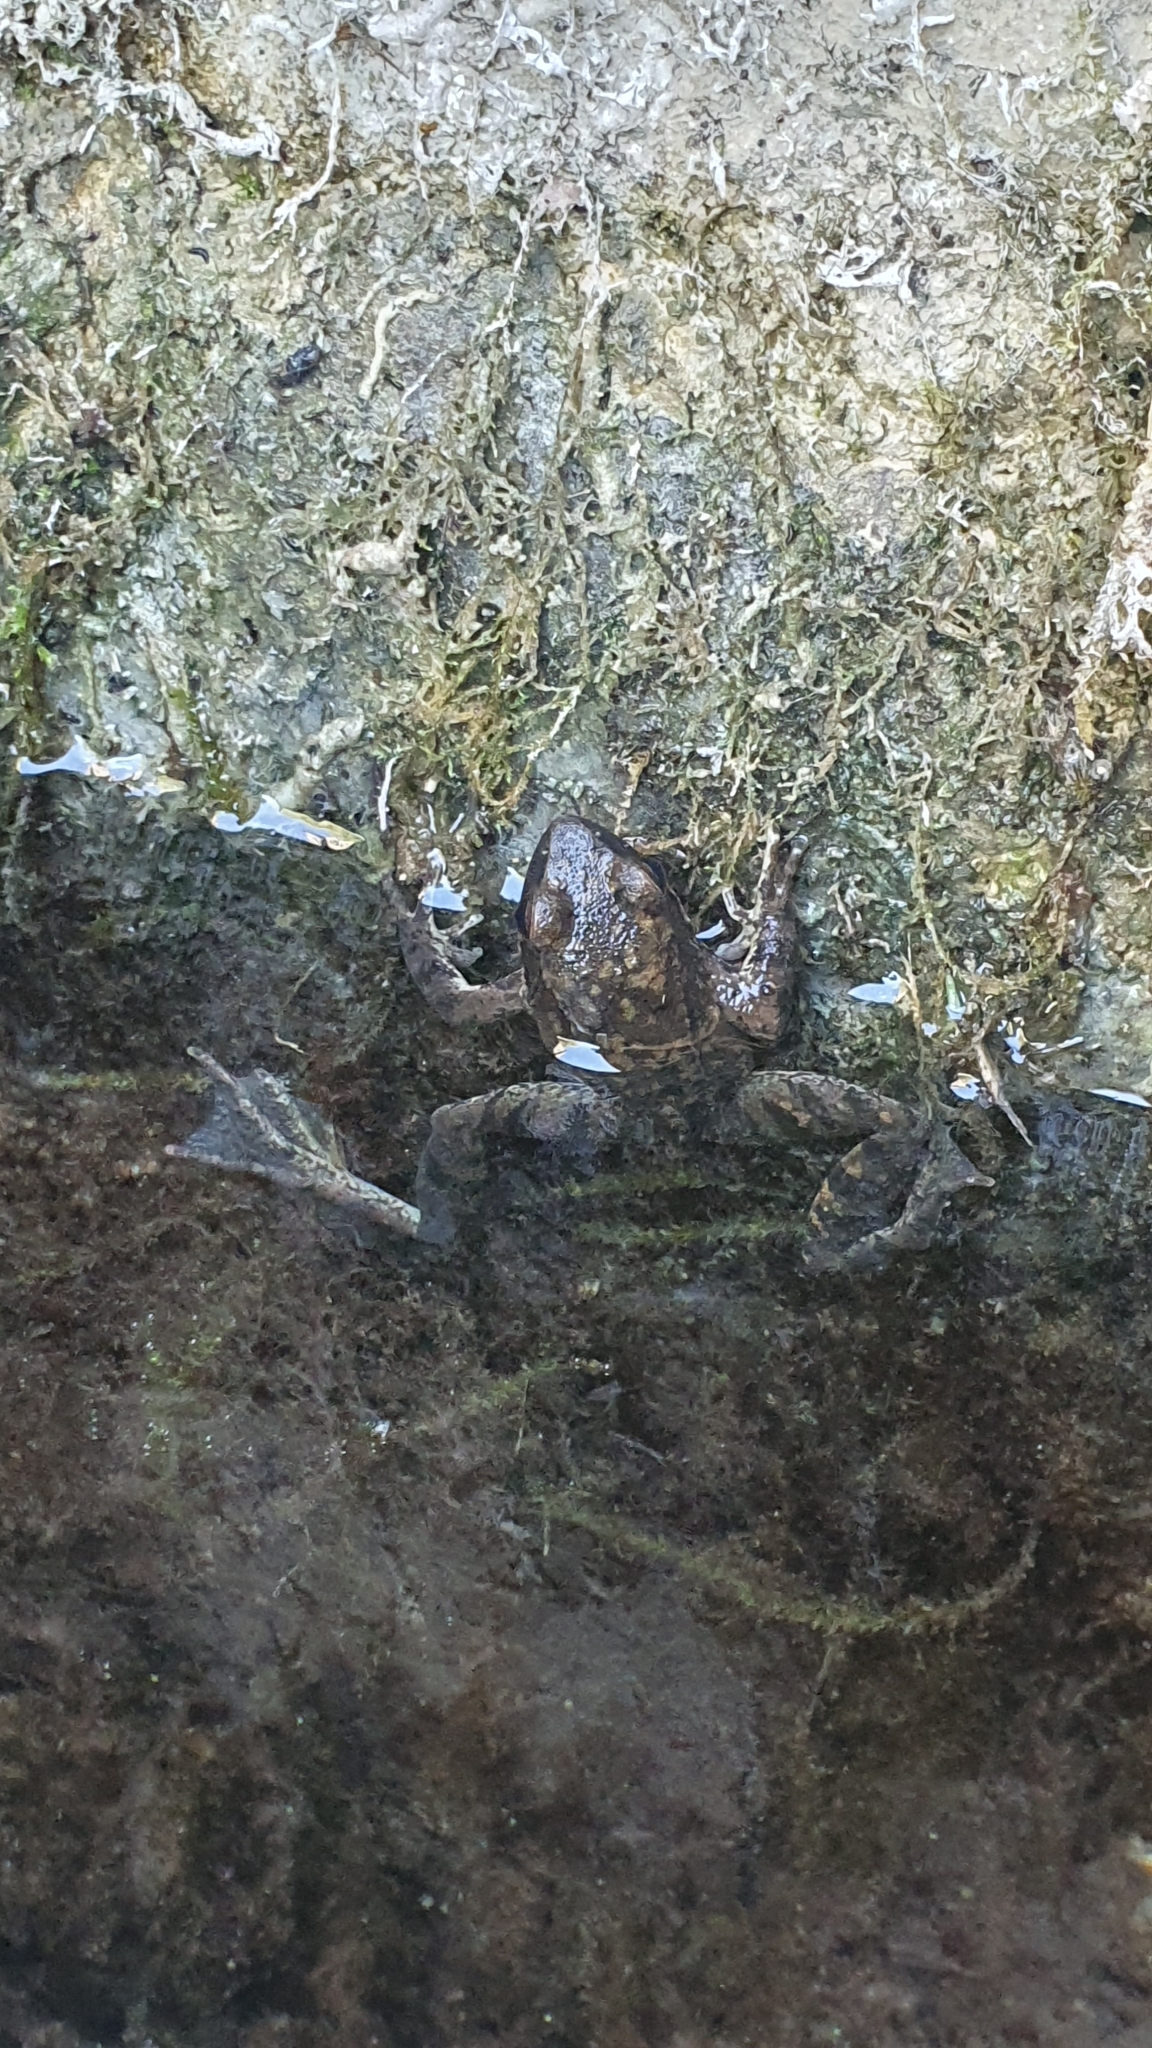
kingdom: Animalia
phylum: Chordata
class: Amphibia
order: Anura
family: Ranidae
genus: Rana
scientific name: Rana italica
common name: Italian stream frog
